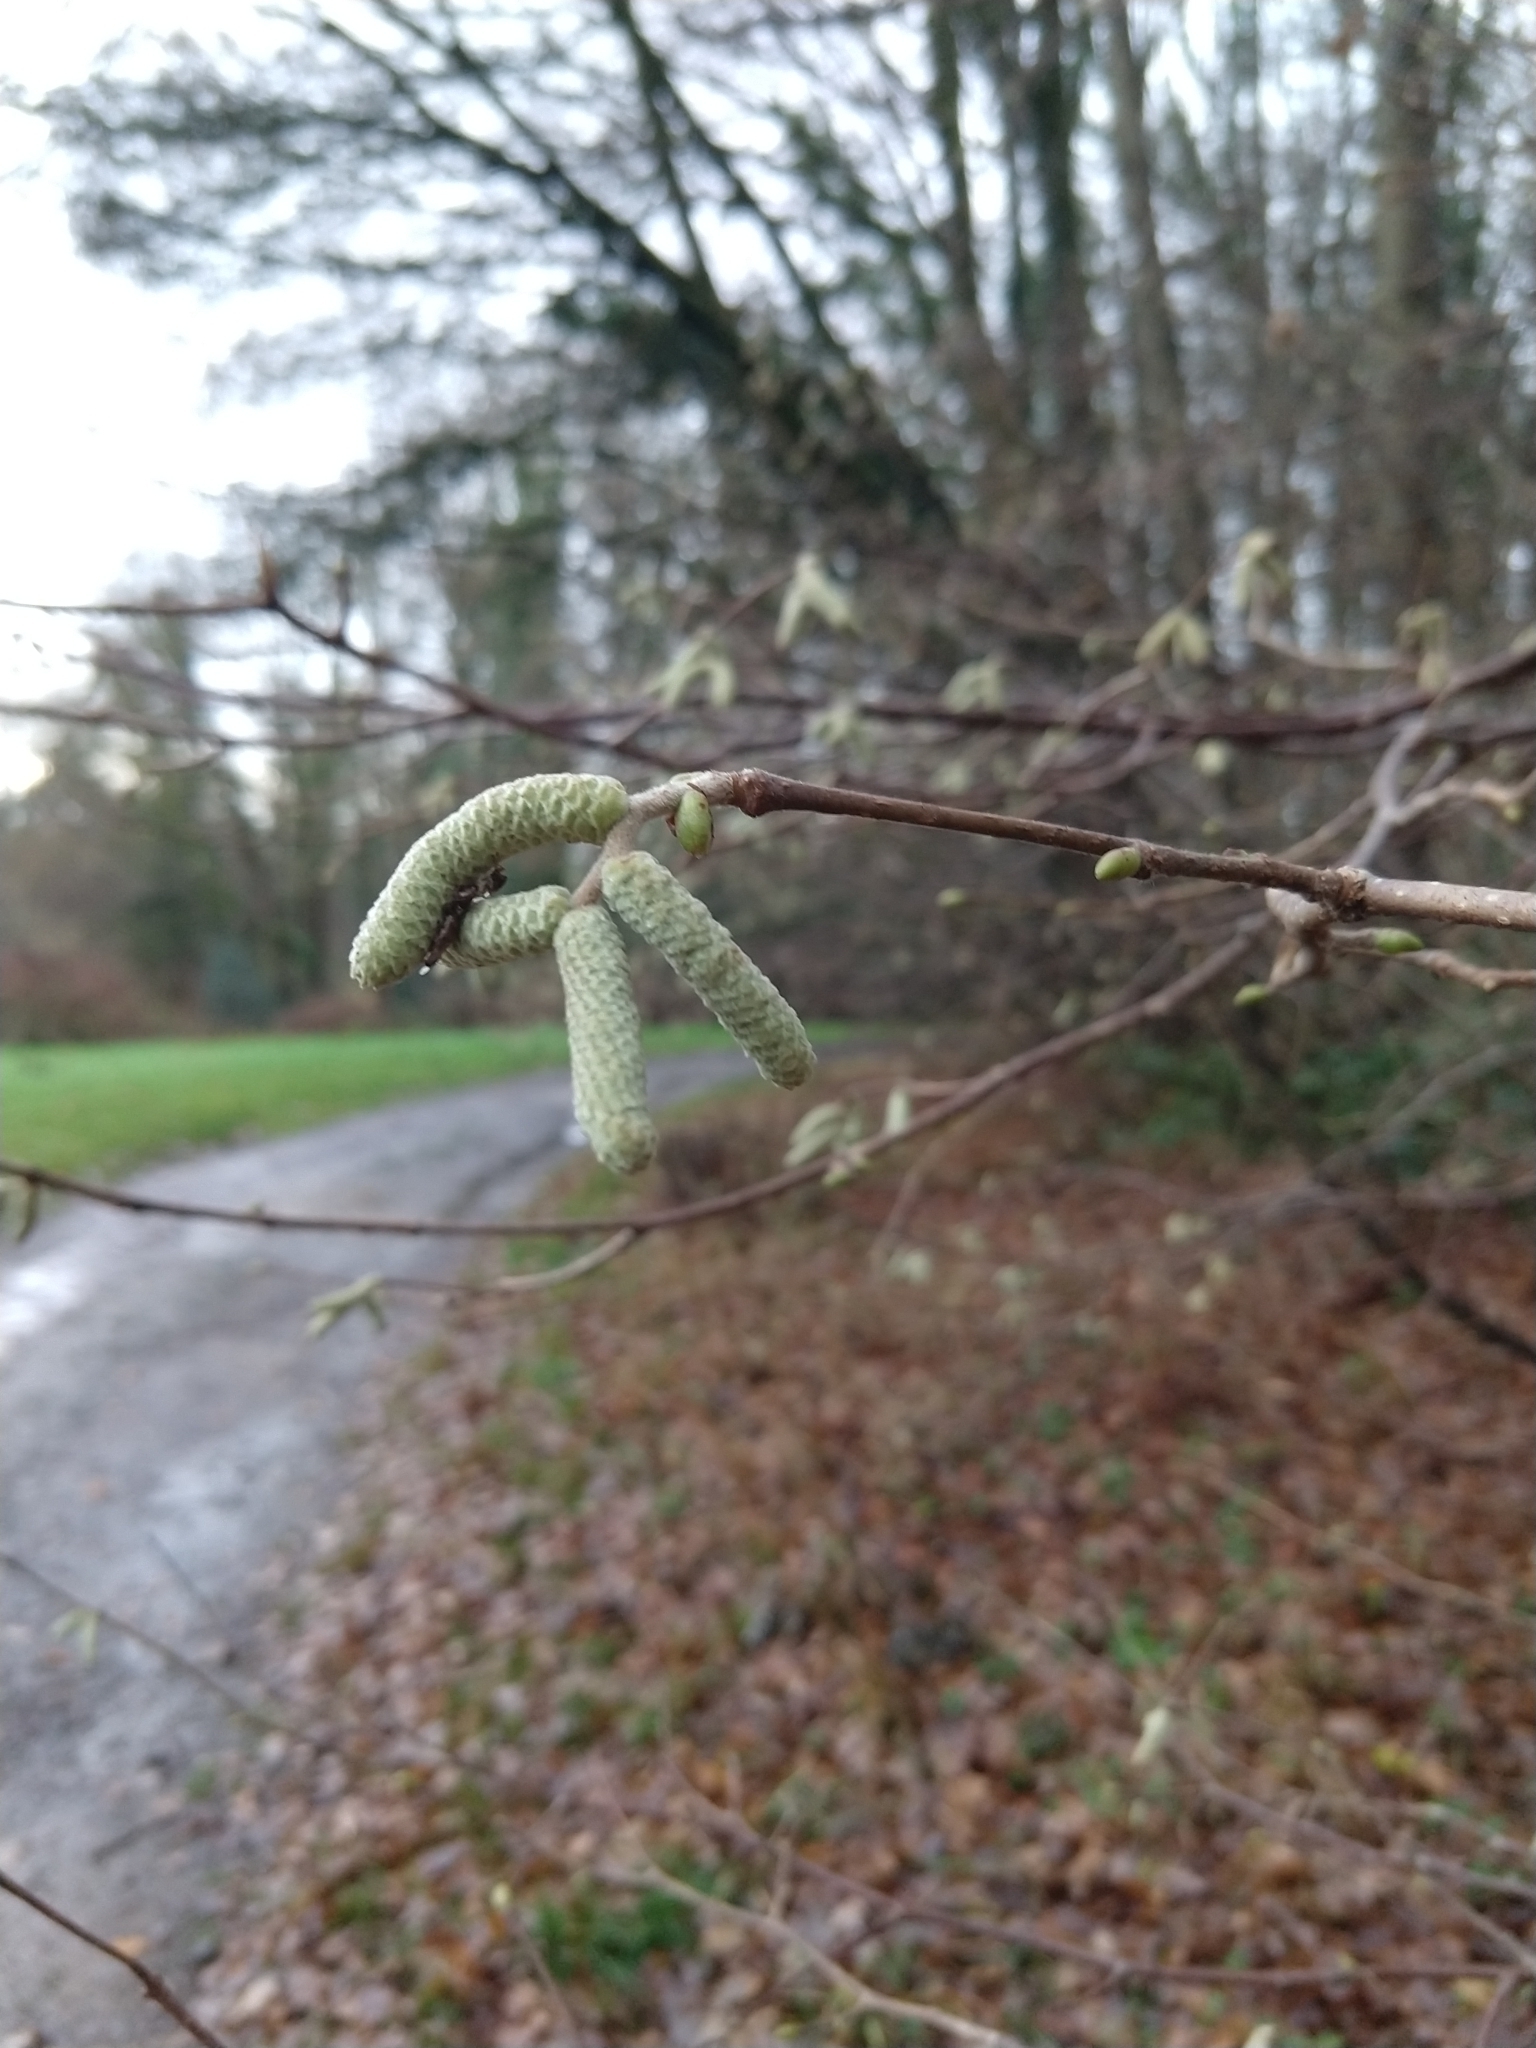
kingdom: Plantae
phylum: Tracheophyta
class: Magnoliopsida
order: Fagales
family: Betulaceae
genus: Corylus
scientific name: Corylus avellana
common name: European hazel
